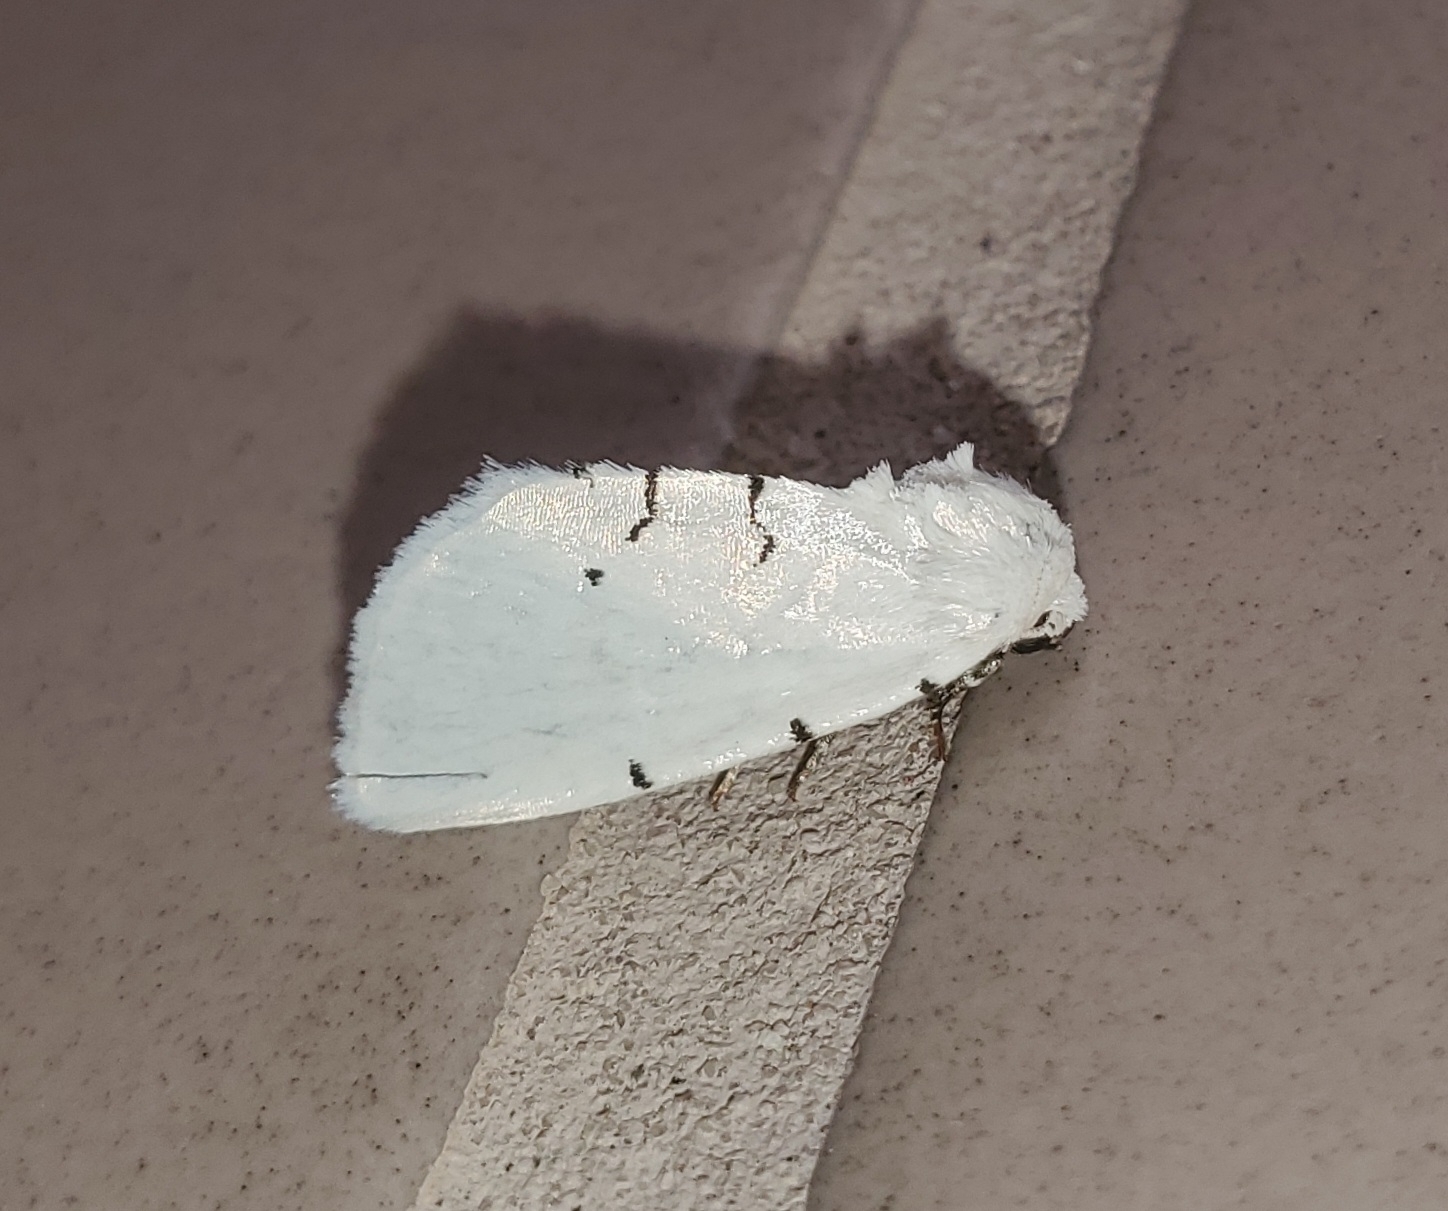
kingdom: Animalia
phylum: Arthropoda
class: Insecta
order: Lepidoptera
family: Noctuidae
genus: Hemioslaria
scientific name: Hemioslaria pima
